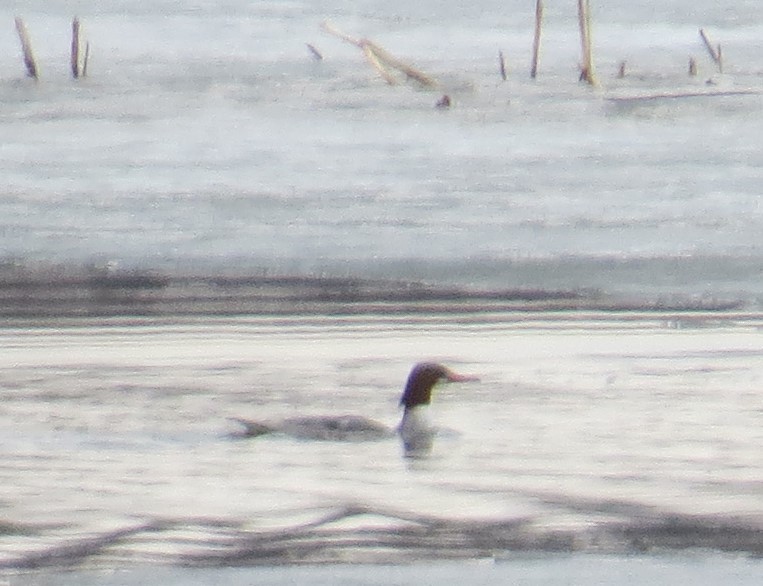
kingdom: Animalia
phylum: Chordata
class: Aves
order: Anseriformes
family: Anatidae
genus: Mergus
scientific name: Mergus merganser
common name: Common merganser
